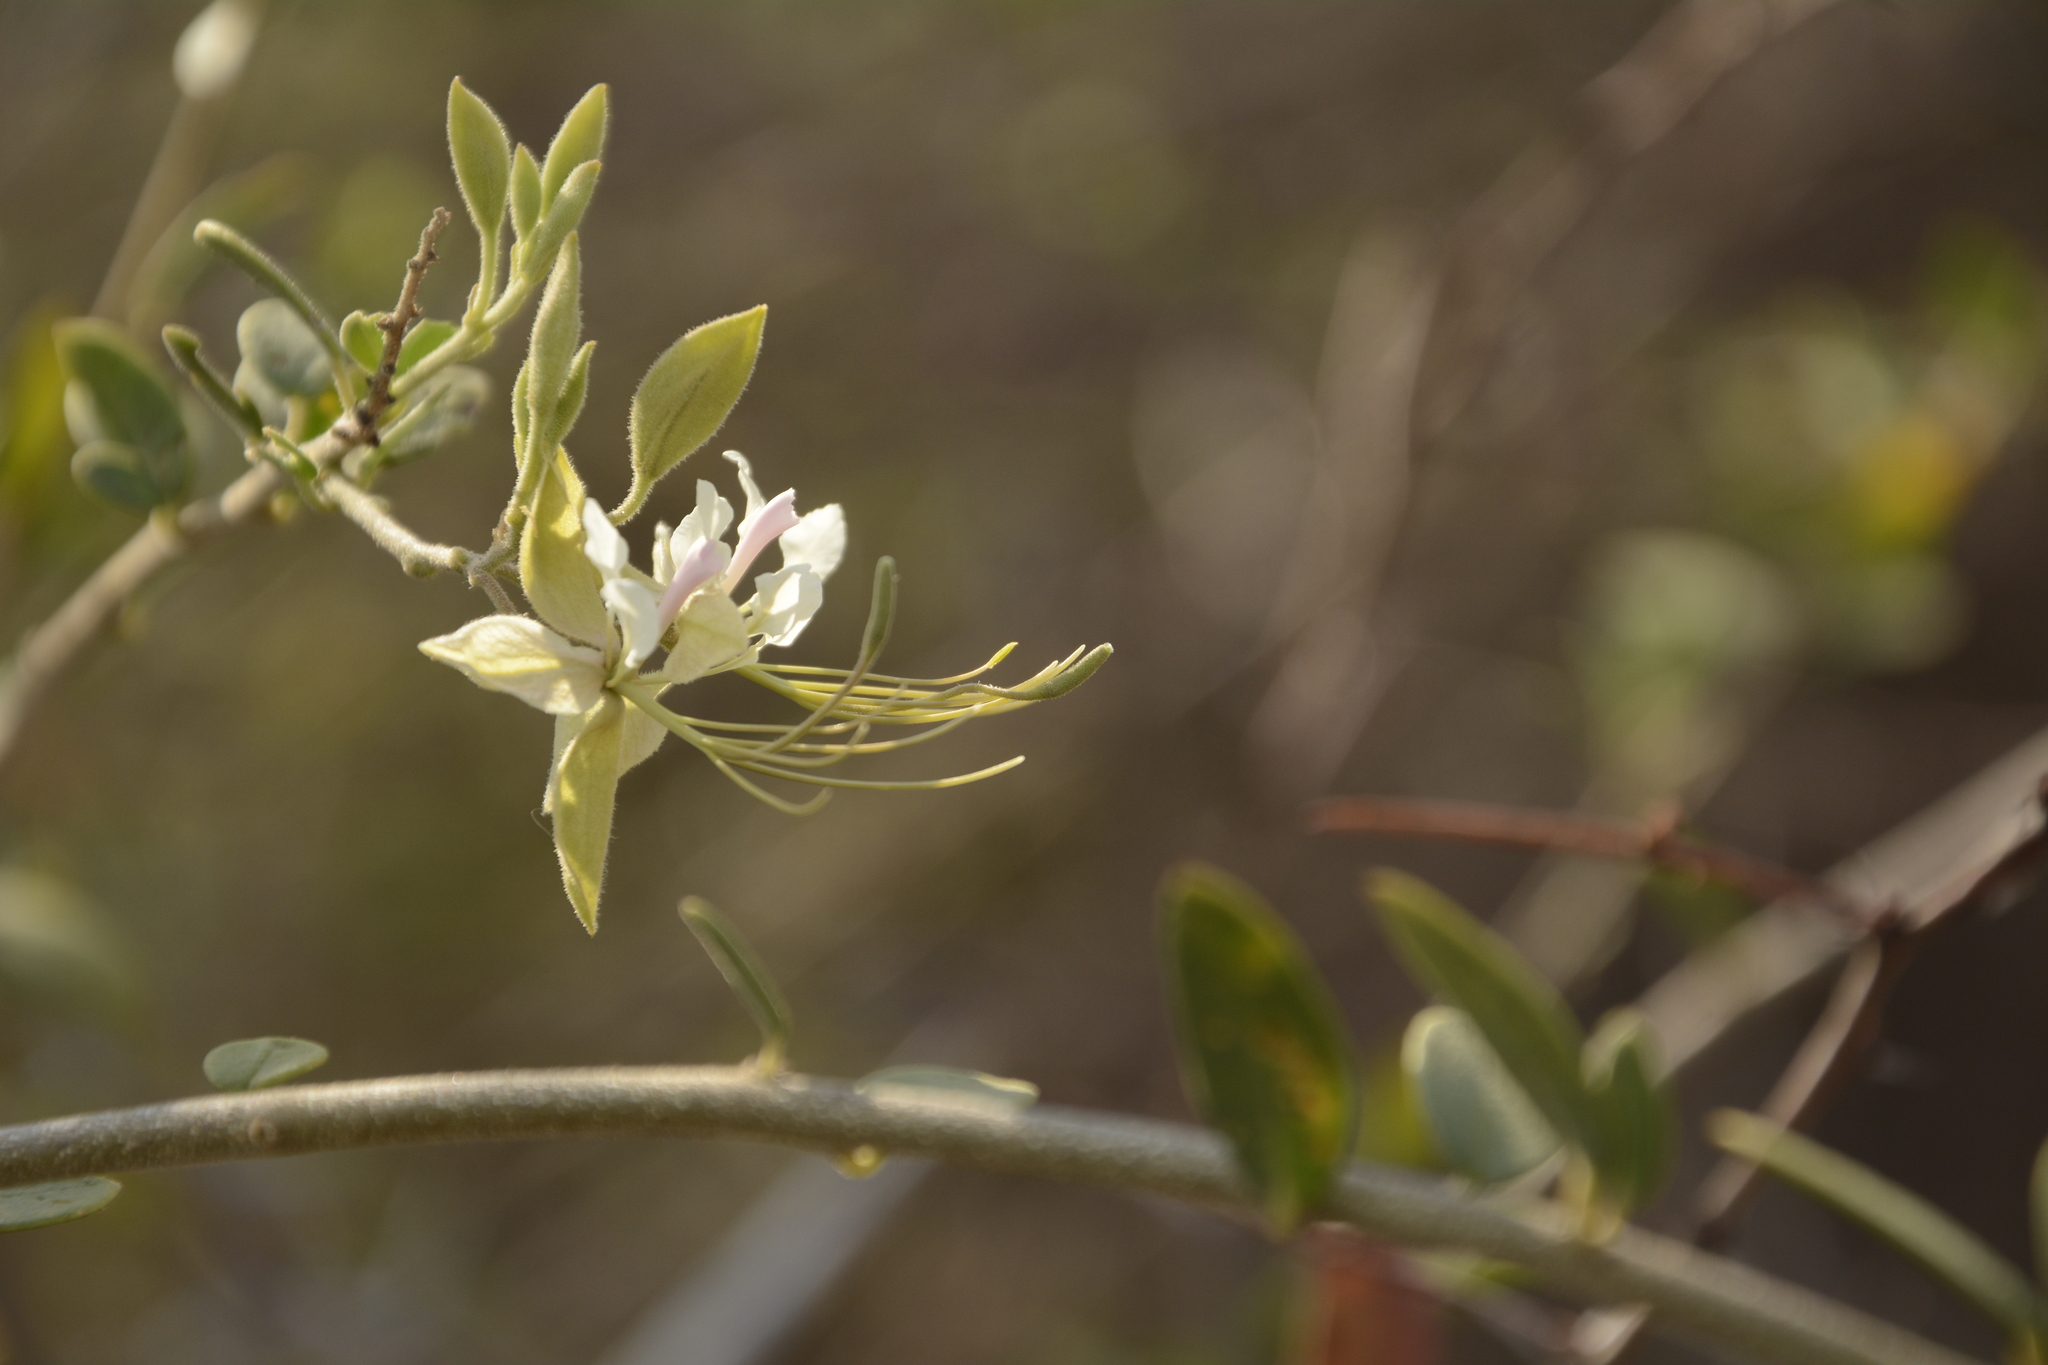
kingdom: Plantae
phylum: Tracheophyta
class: Magnoliopsida
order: Brassicales
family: Capparaceae
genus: Cadaba
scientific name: Cadaba fruticosa
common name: Indian cadaba
